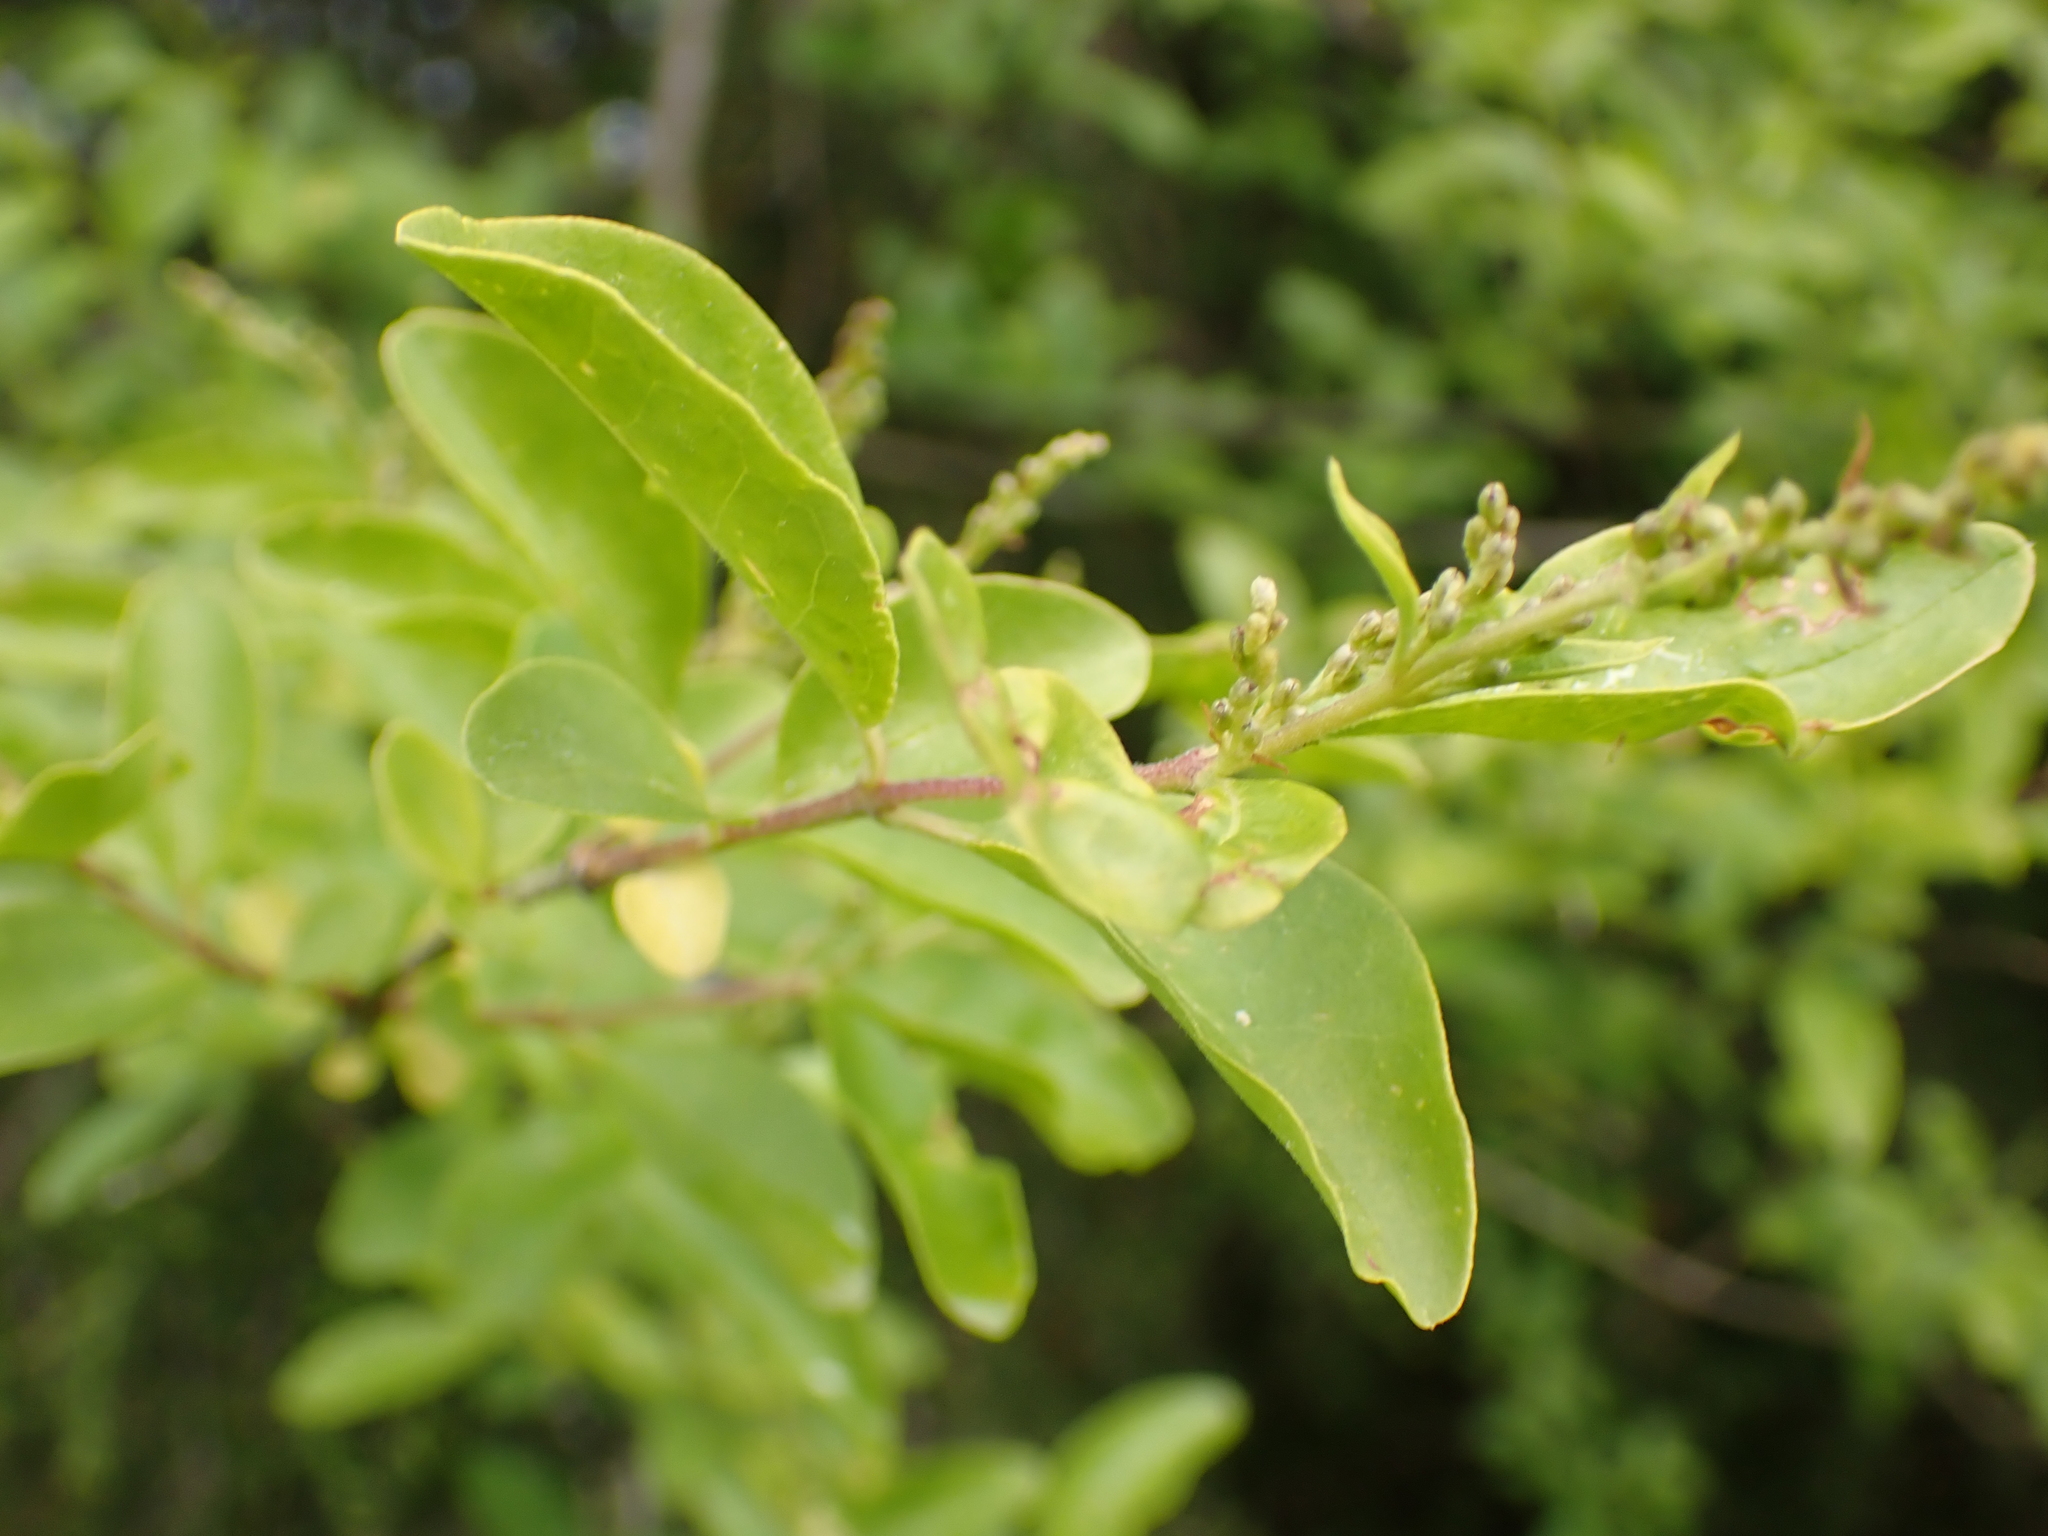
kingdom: Plantae
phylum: Tracheophyta
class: Magnoliopsida
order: Lamiales
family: Oleaceae
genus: Ligustrum
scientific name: Ligustrum sinense
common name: Chinese privet
